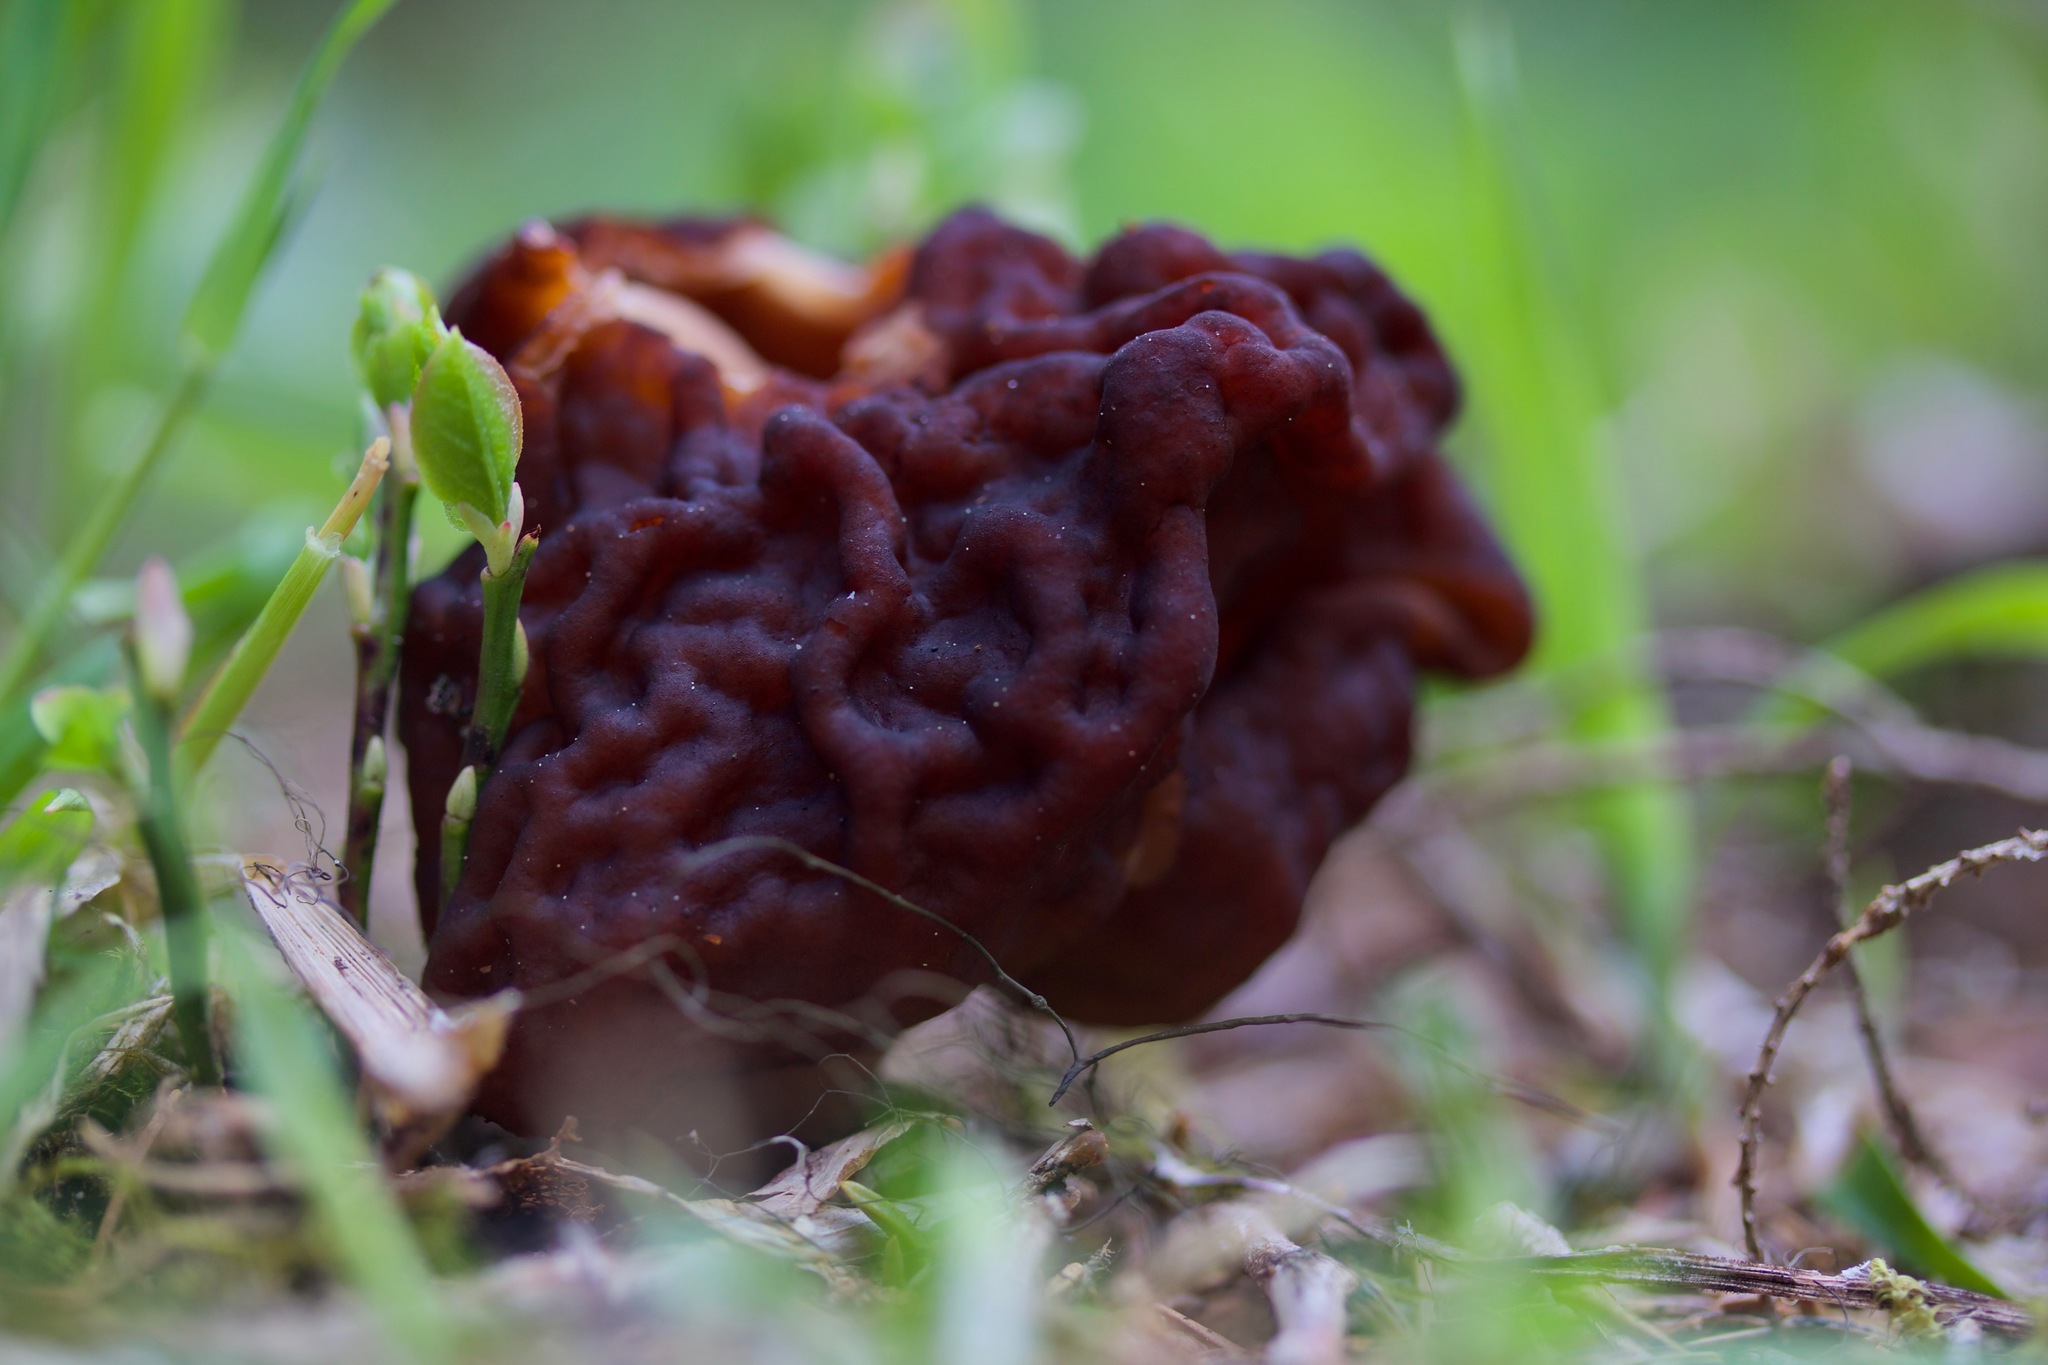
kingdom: Fungi
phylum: Ascomycota
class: Pezizomycetes
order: Pezizales
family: Discinaceae
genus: Gyromitra
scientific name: Gyromitra esculenta
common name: False morel
